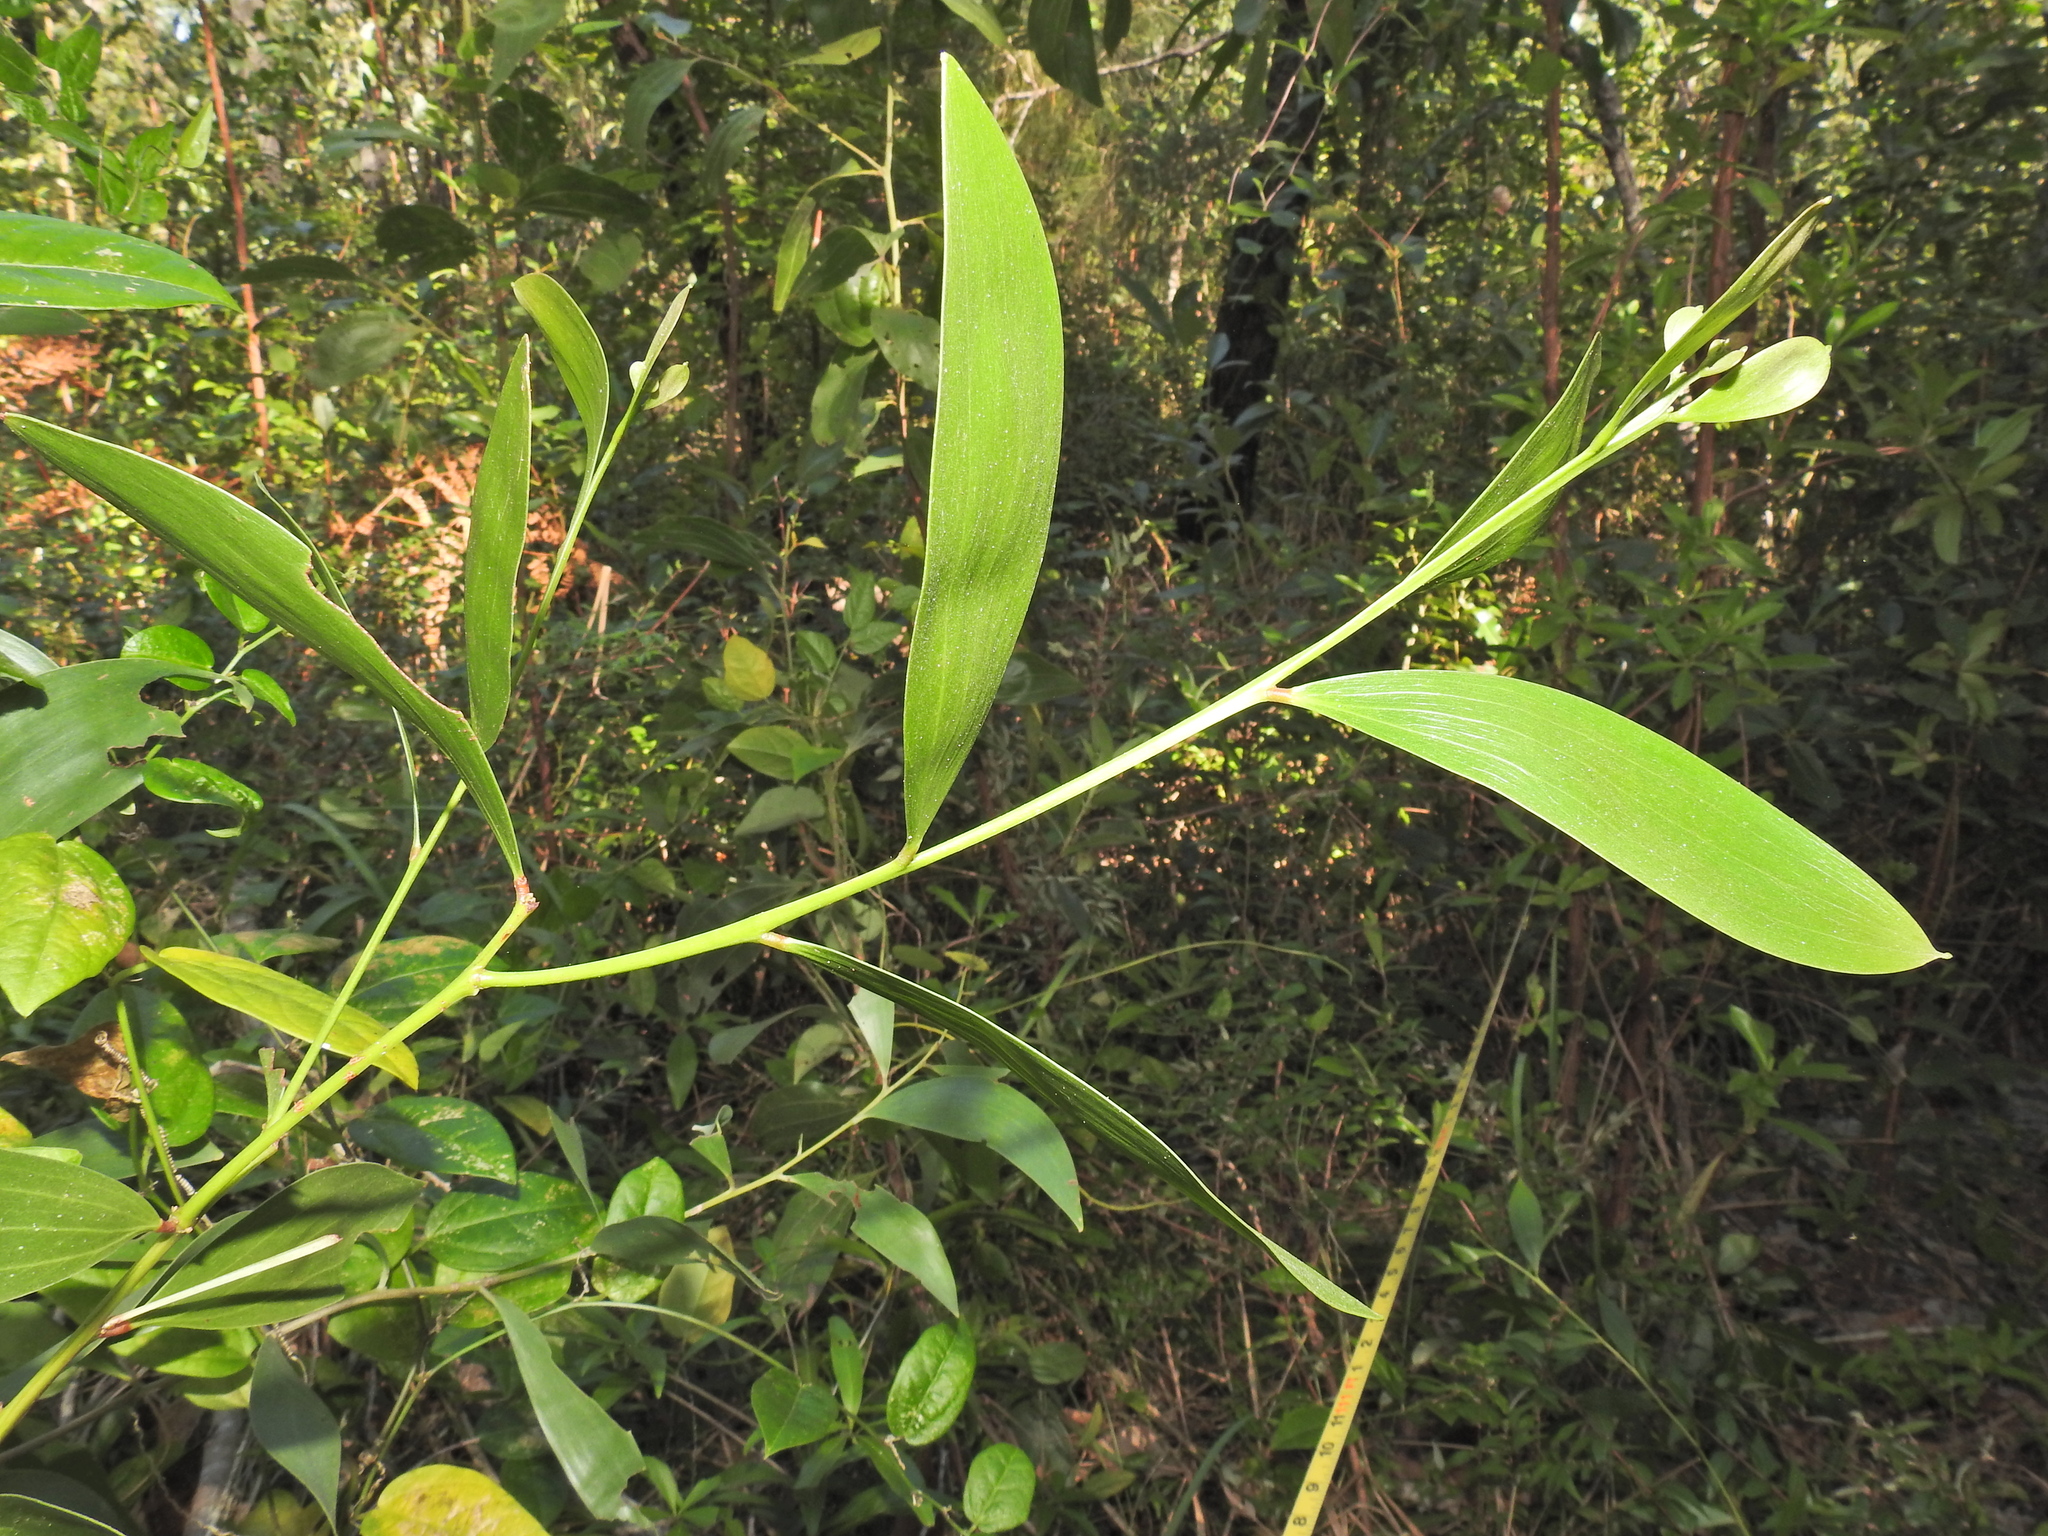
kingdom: Plantae
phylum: Tracheophyta
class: Magnoliopsida
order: Fabales
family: Fabaceae
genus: Acacia
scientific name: Acacia disparrima
